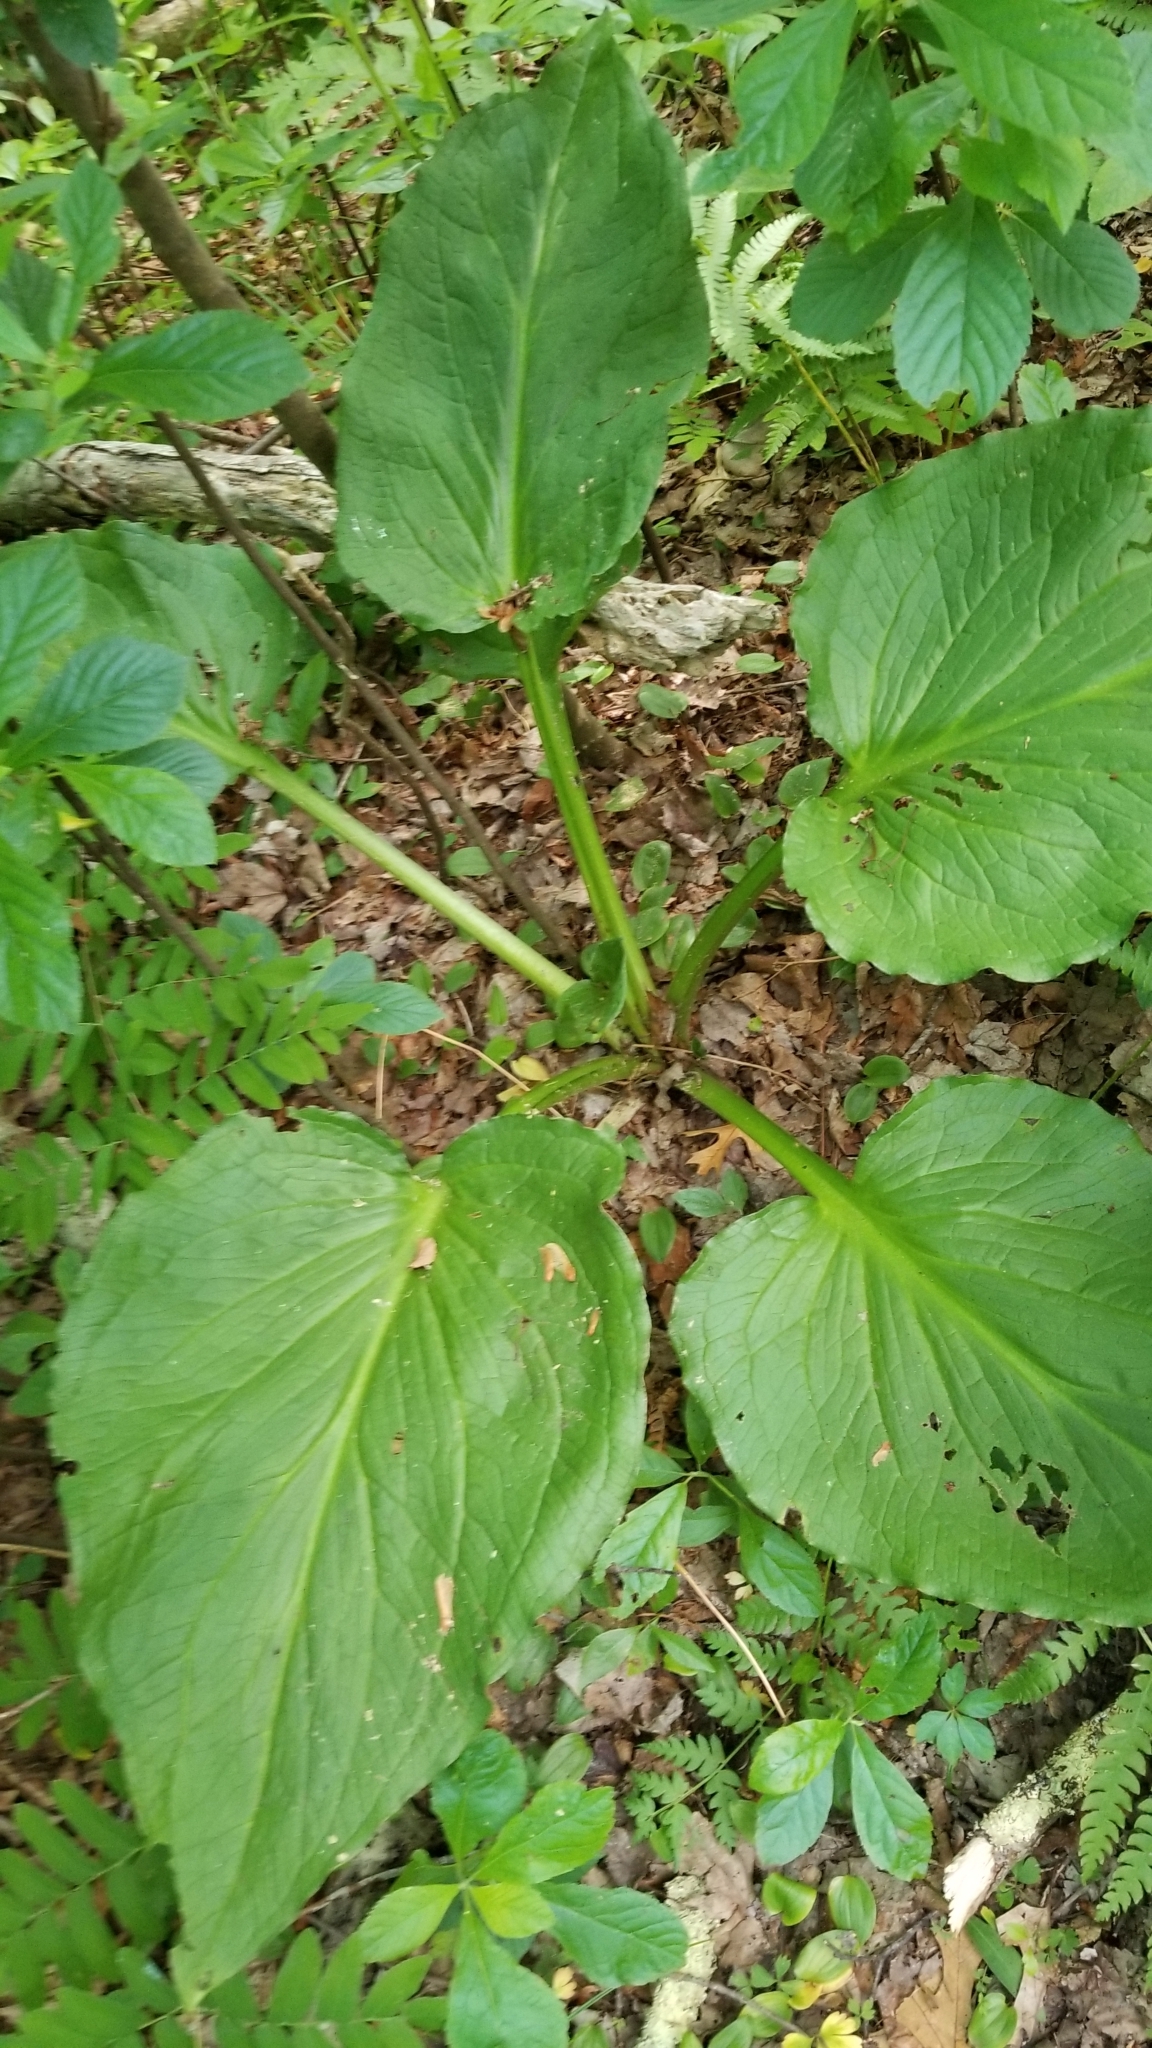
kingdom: Plantae
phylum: Tracheophyta
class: Liliopsida
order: Alismatales
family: Araceae
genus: Symplocarpus
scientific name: Symplocarpus foetidus
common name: Eastern skunk cabbage
